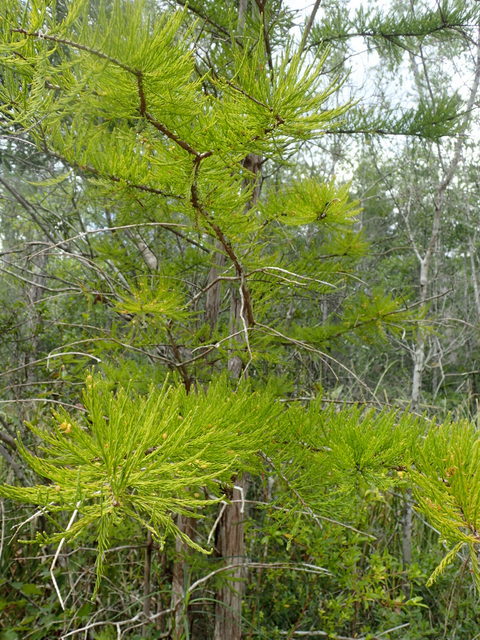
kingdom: Plantae
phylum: Tracheophyta
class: Pinopsida
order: Pinales
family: Cupressaceae
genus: Taxodium
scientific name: Taxodium distichum
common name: Bald cypress
